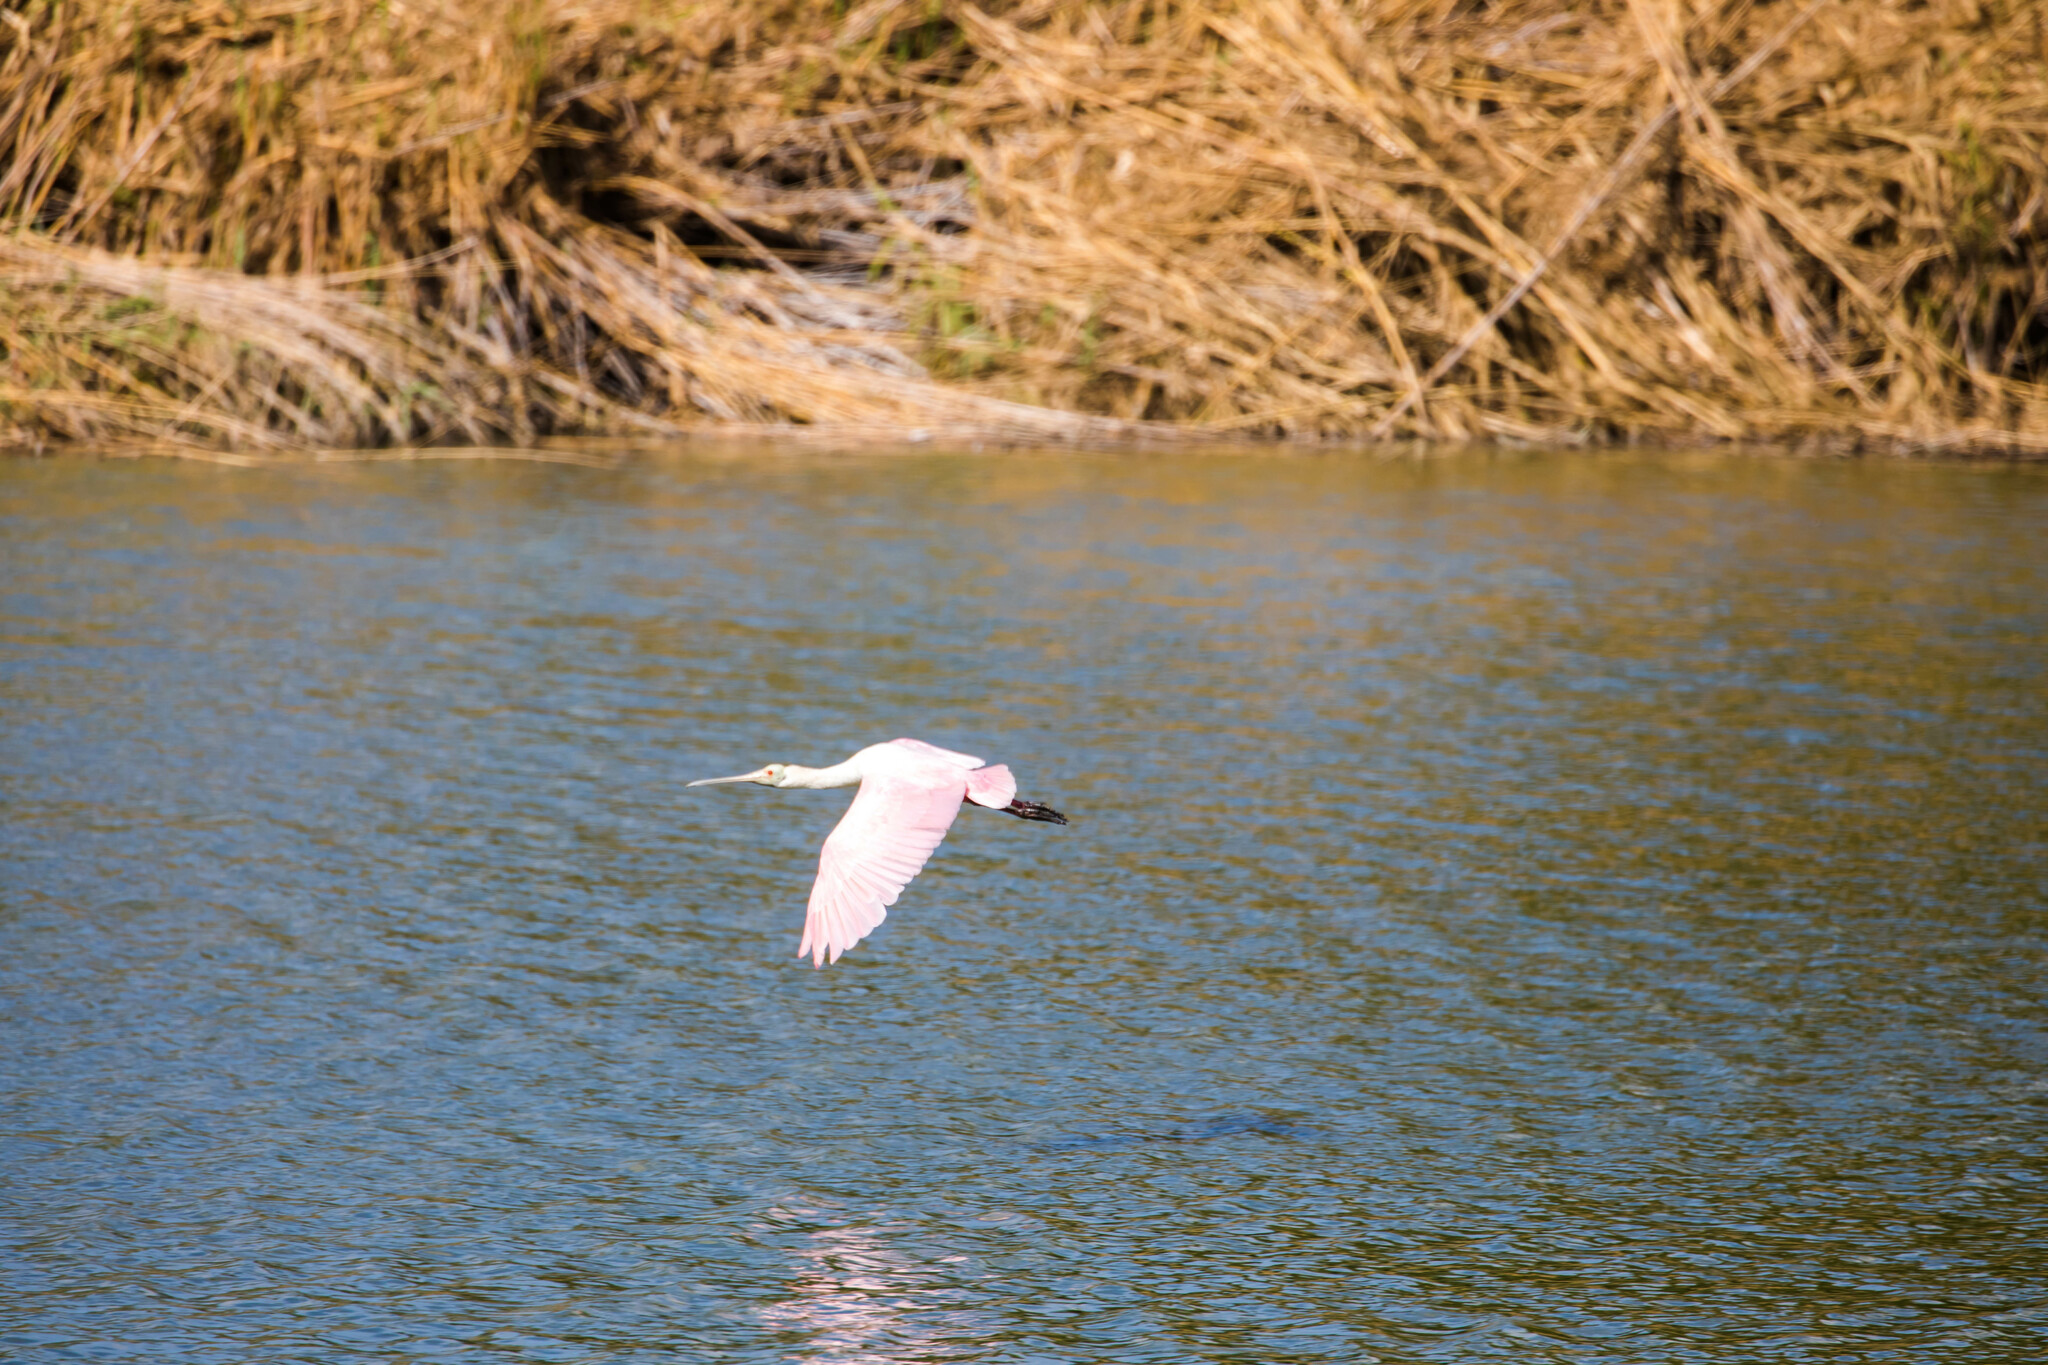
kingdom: Animalia
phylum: Chordata
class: Aves
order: Pelecaniformes
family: Threskiornithidae
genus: Platalea
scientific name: Platalea ajaja
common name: Roseate spoonbill
